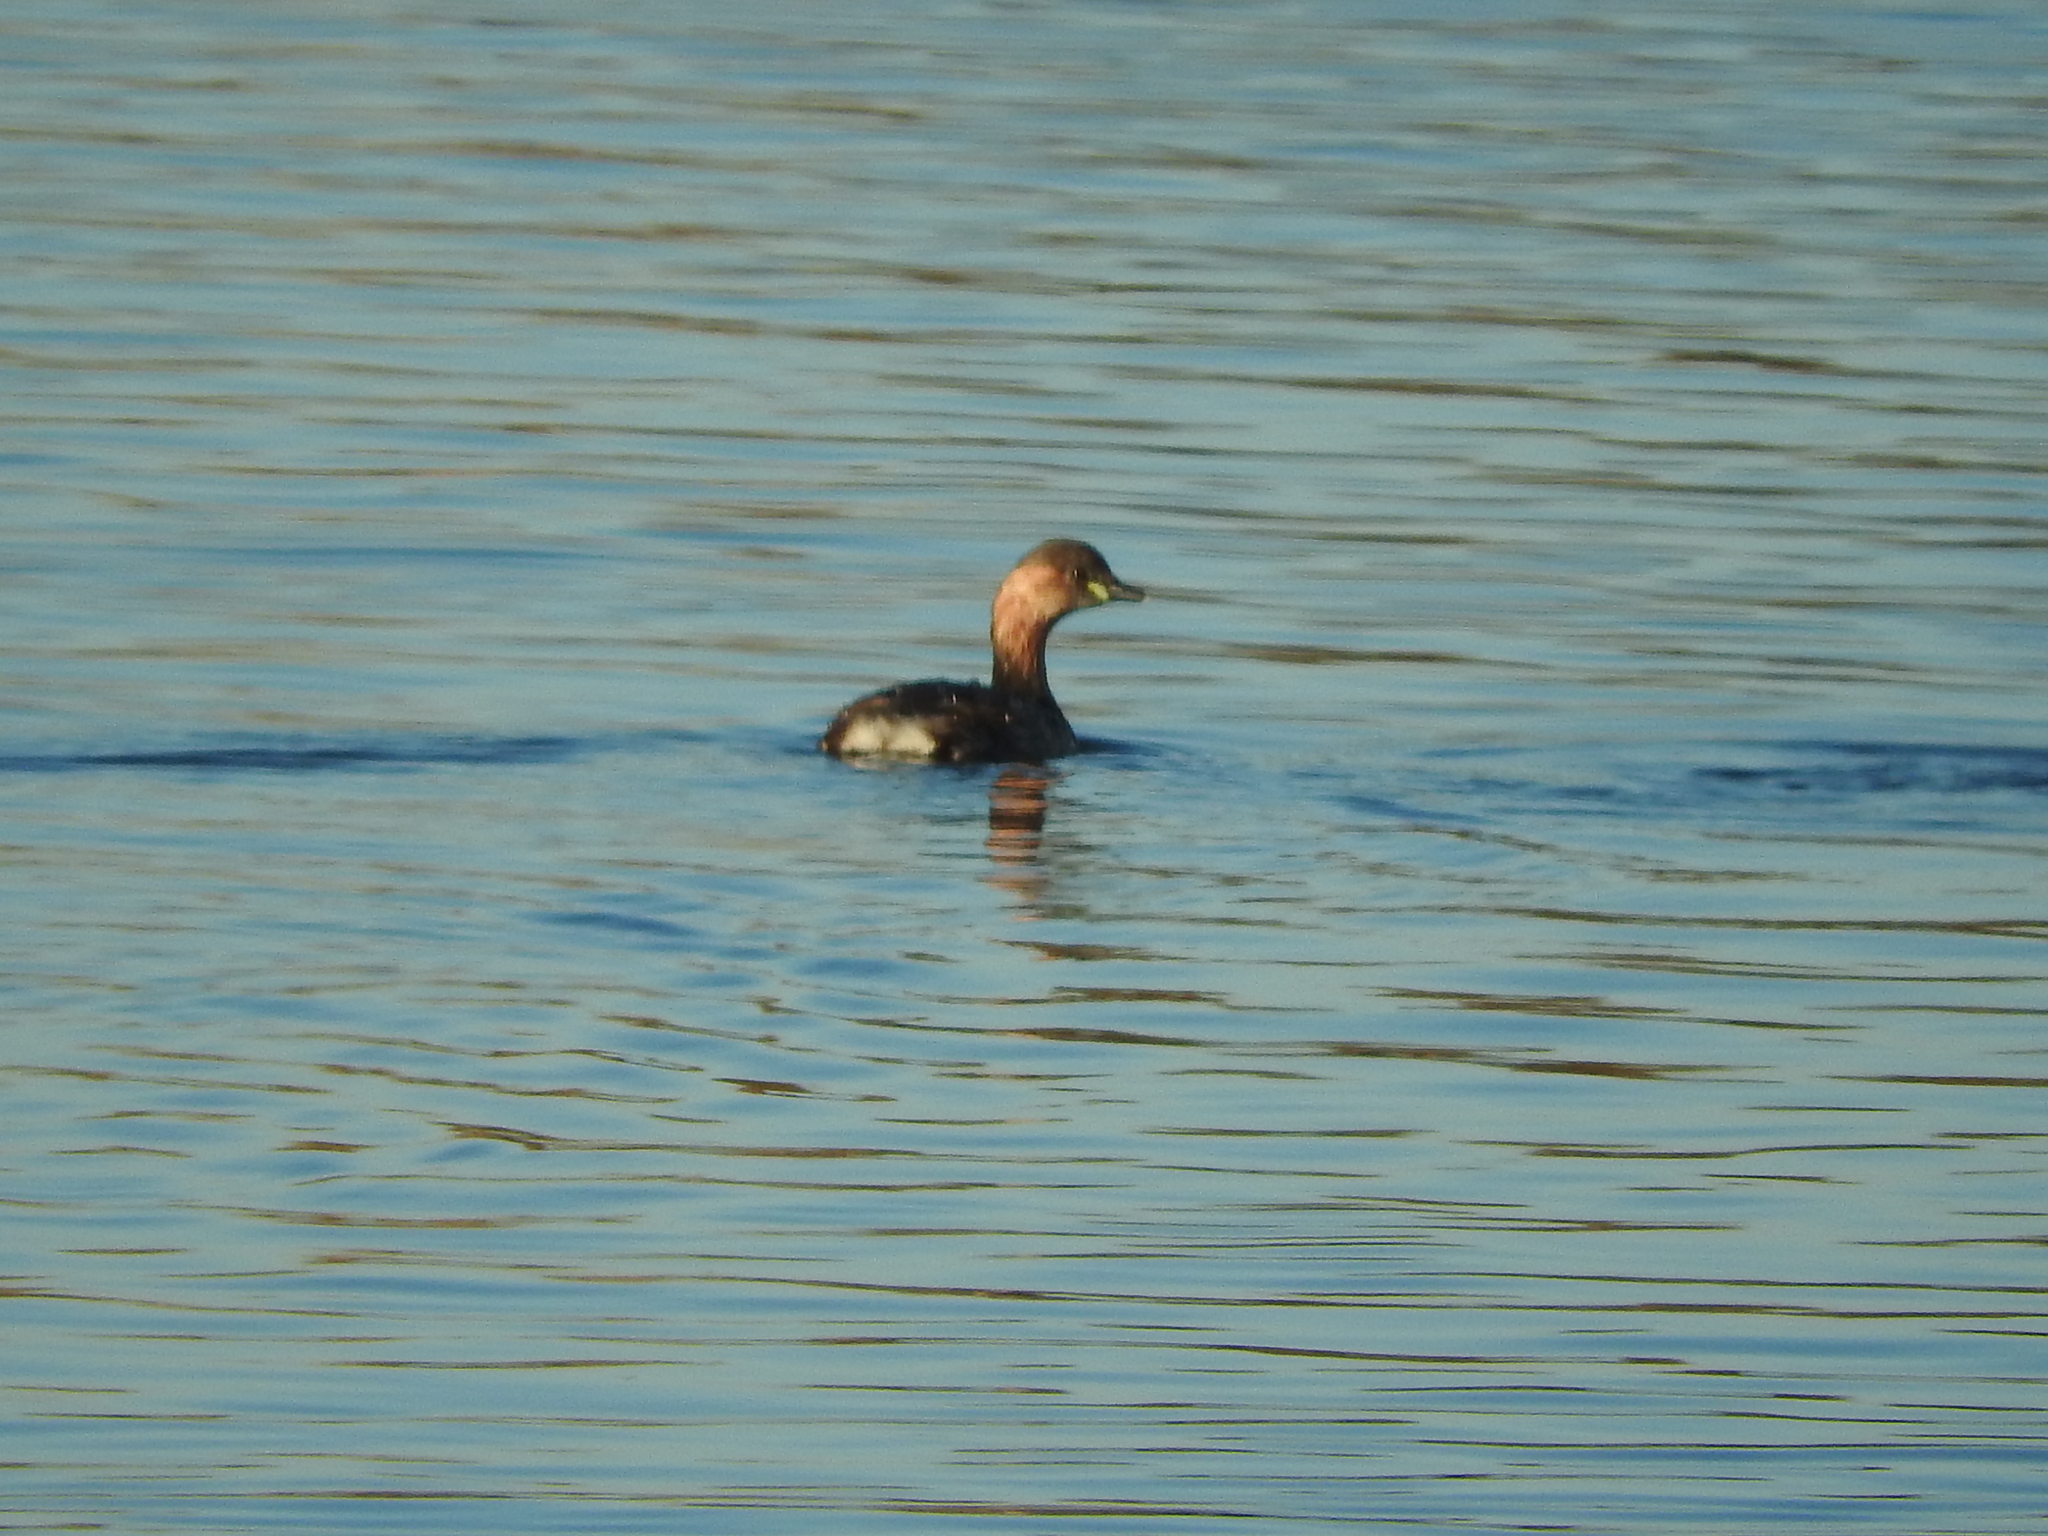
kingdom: Animalia
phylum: Chordata
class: Aves
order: Podicipediformes
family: Podicipedidae
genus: Tachybaptus
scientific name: Tachybaptus ruficollis
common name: Little grebe
